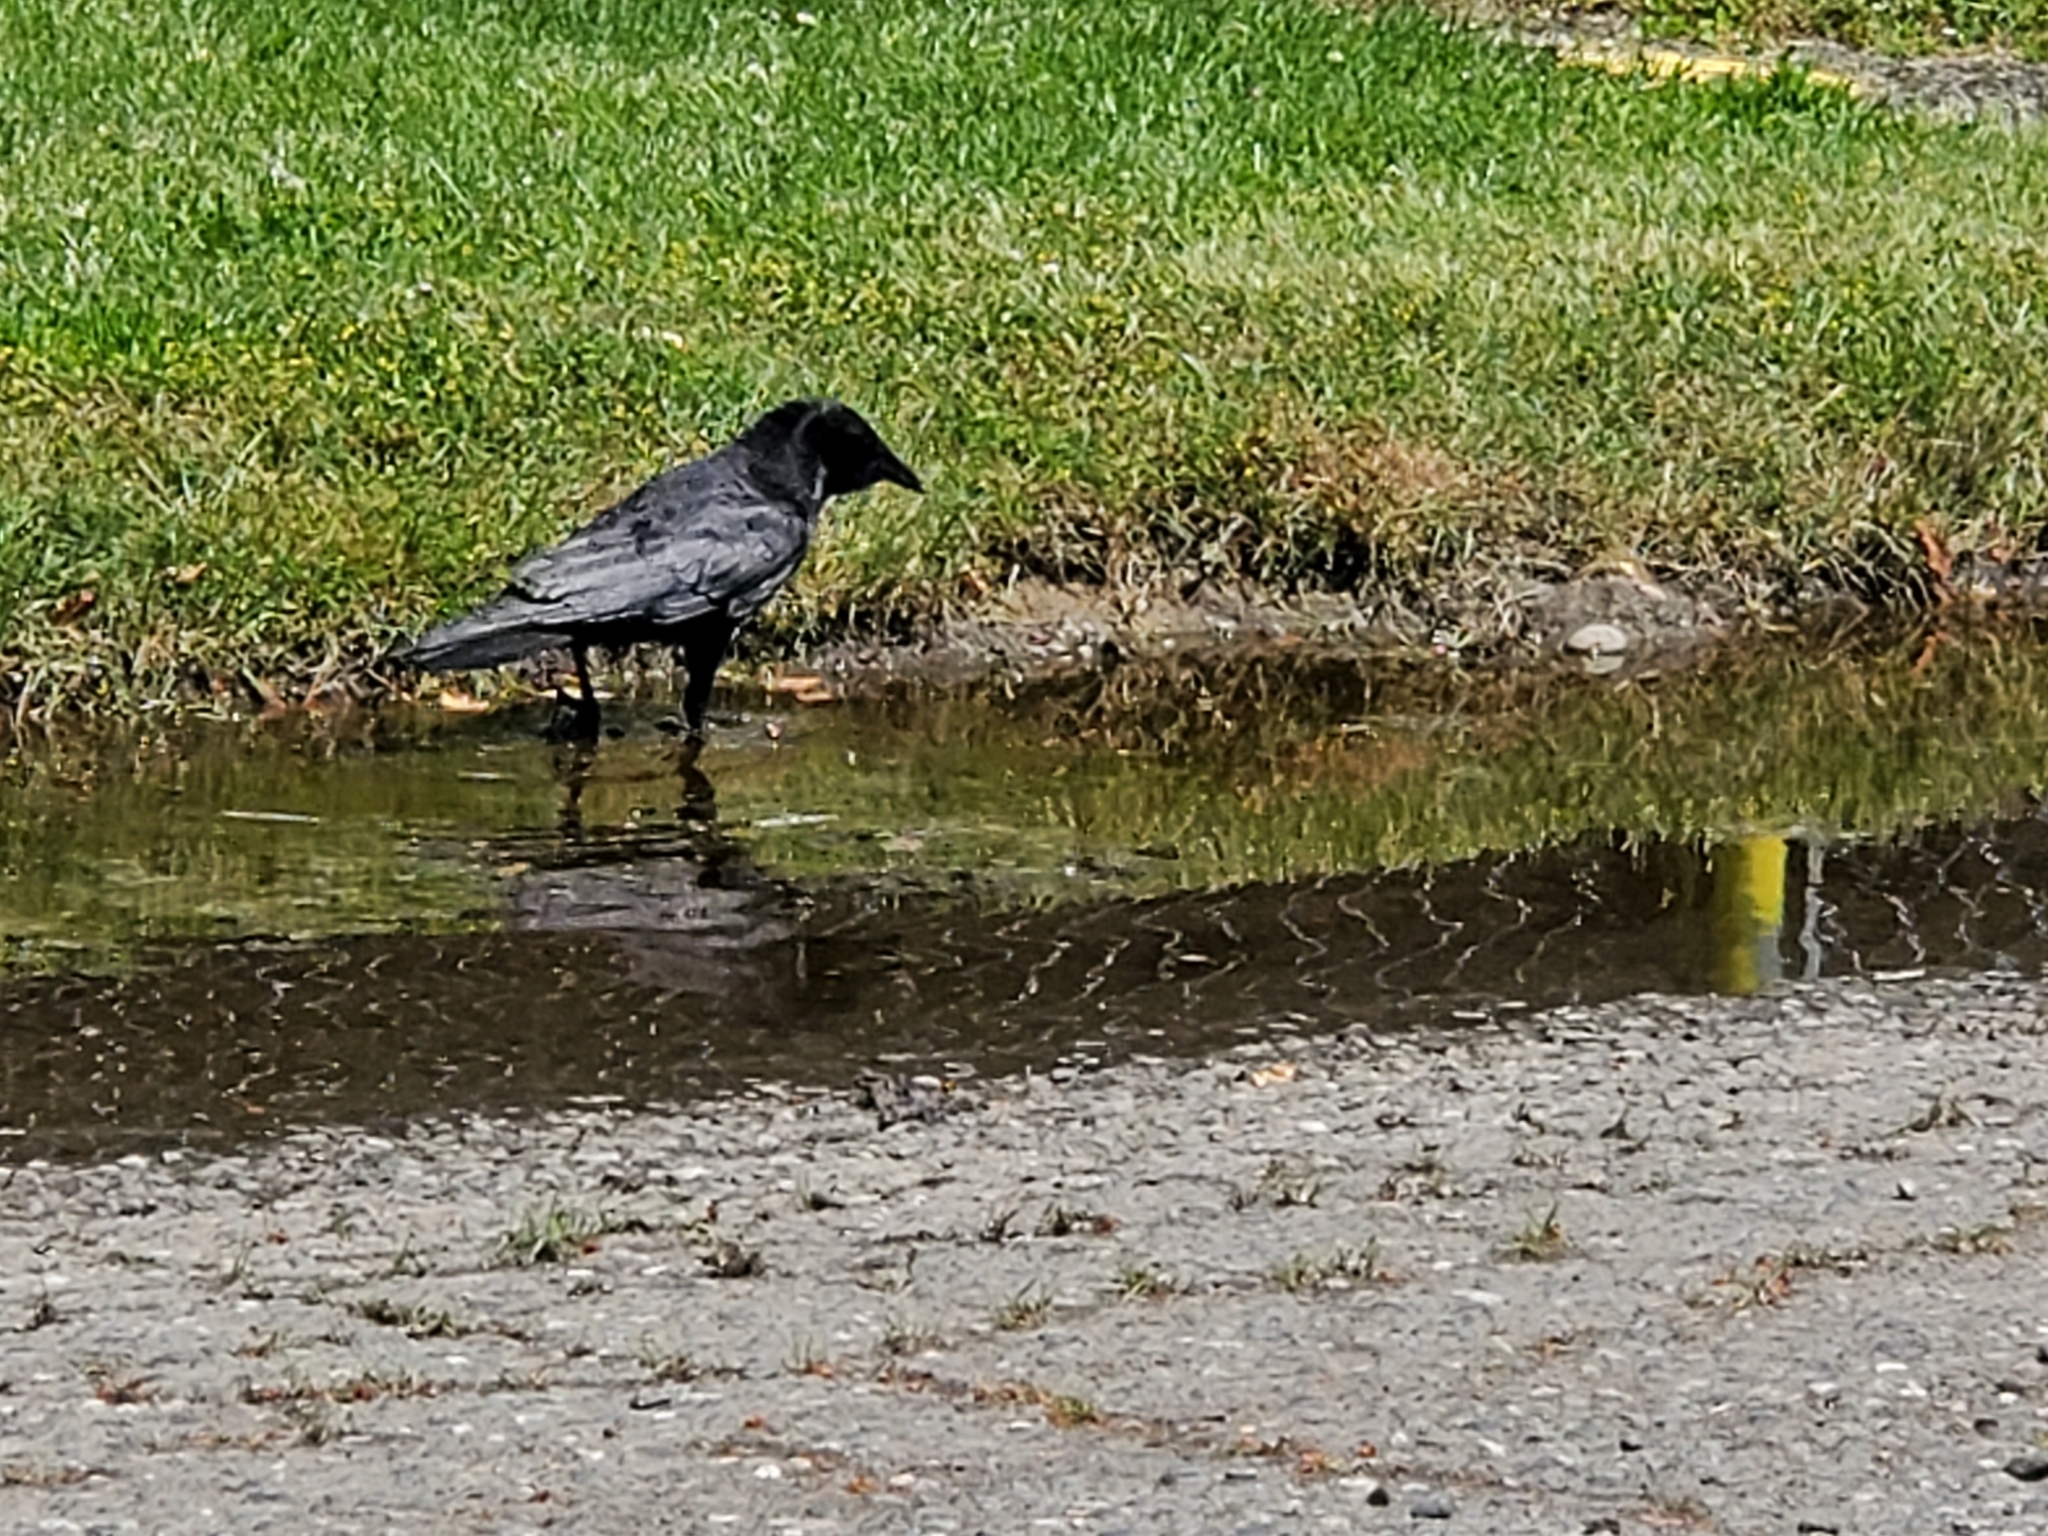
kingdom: Animalia
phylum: Chordata
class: Aves
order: Passeriformes
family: Corvidae
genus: Corvus
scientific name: Corvus brachyrhynchos
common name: American crow
